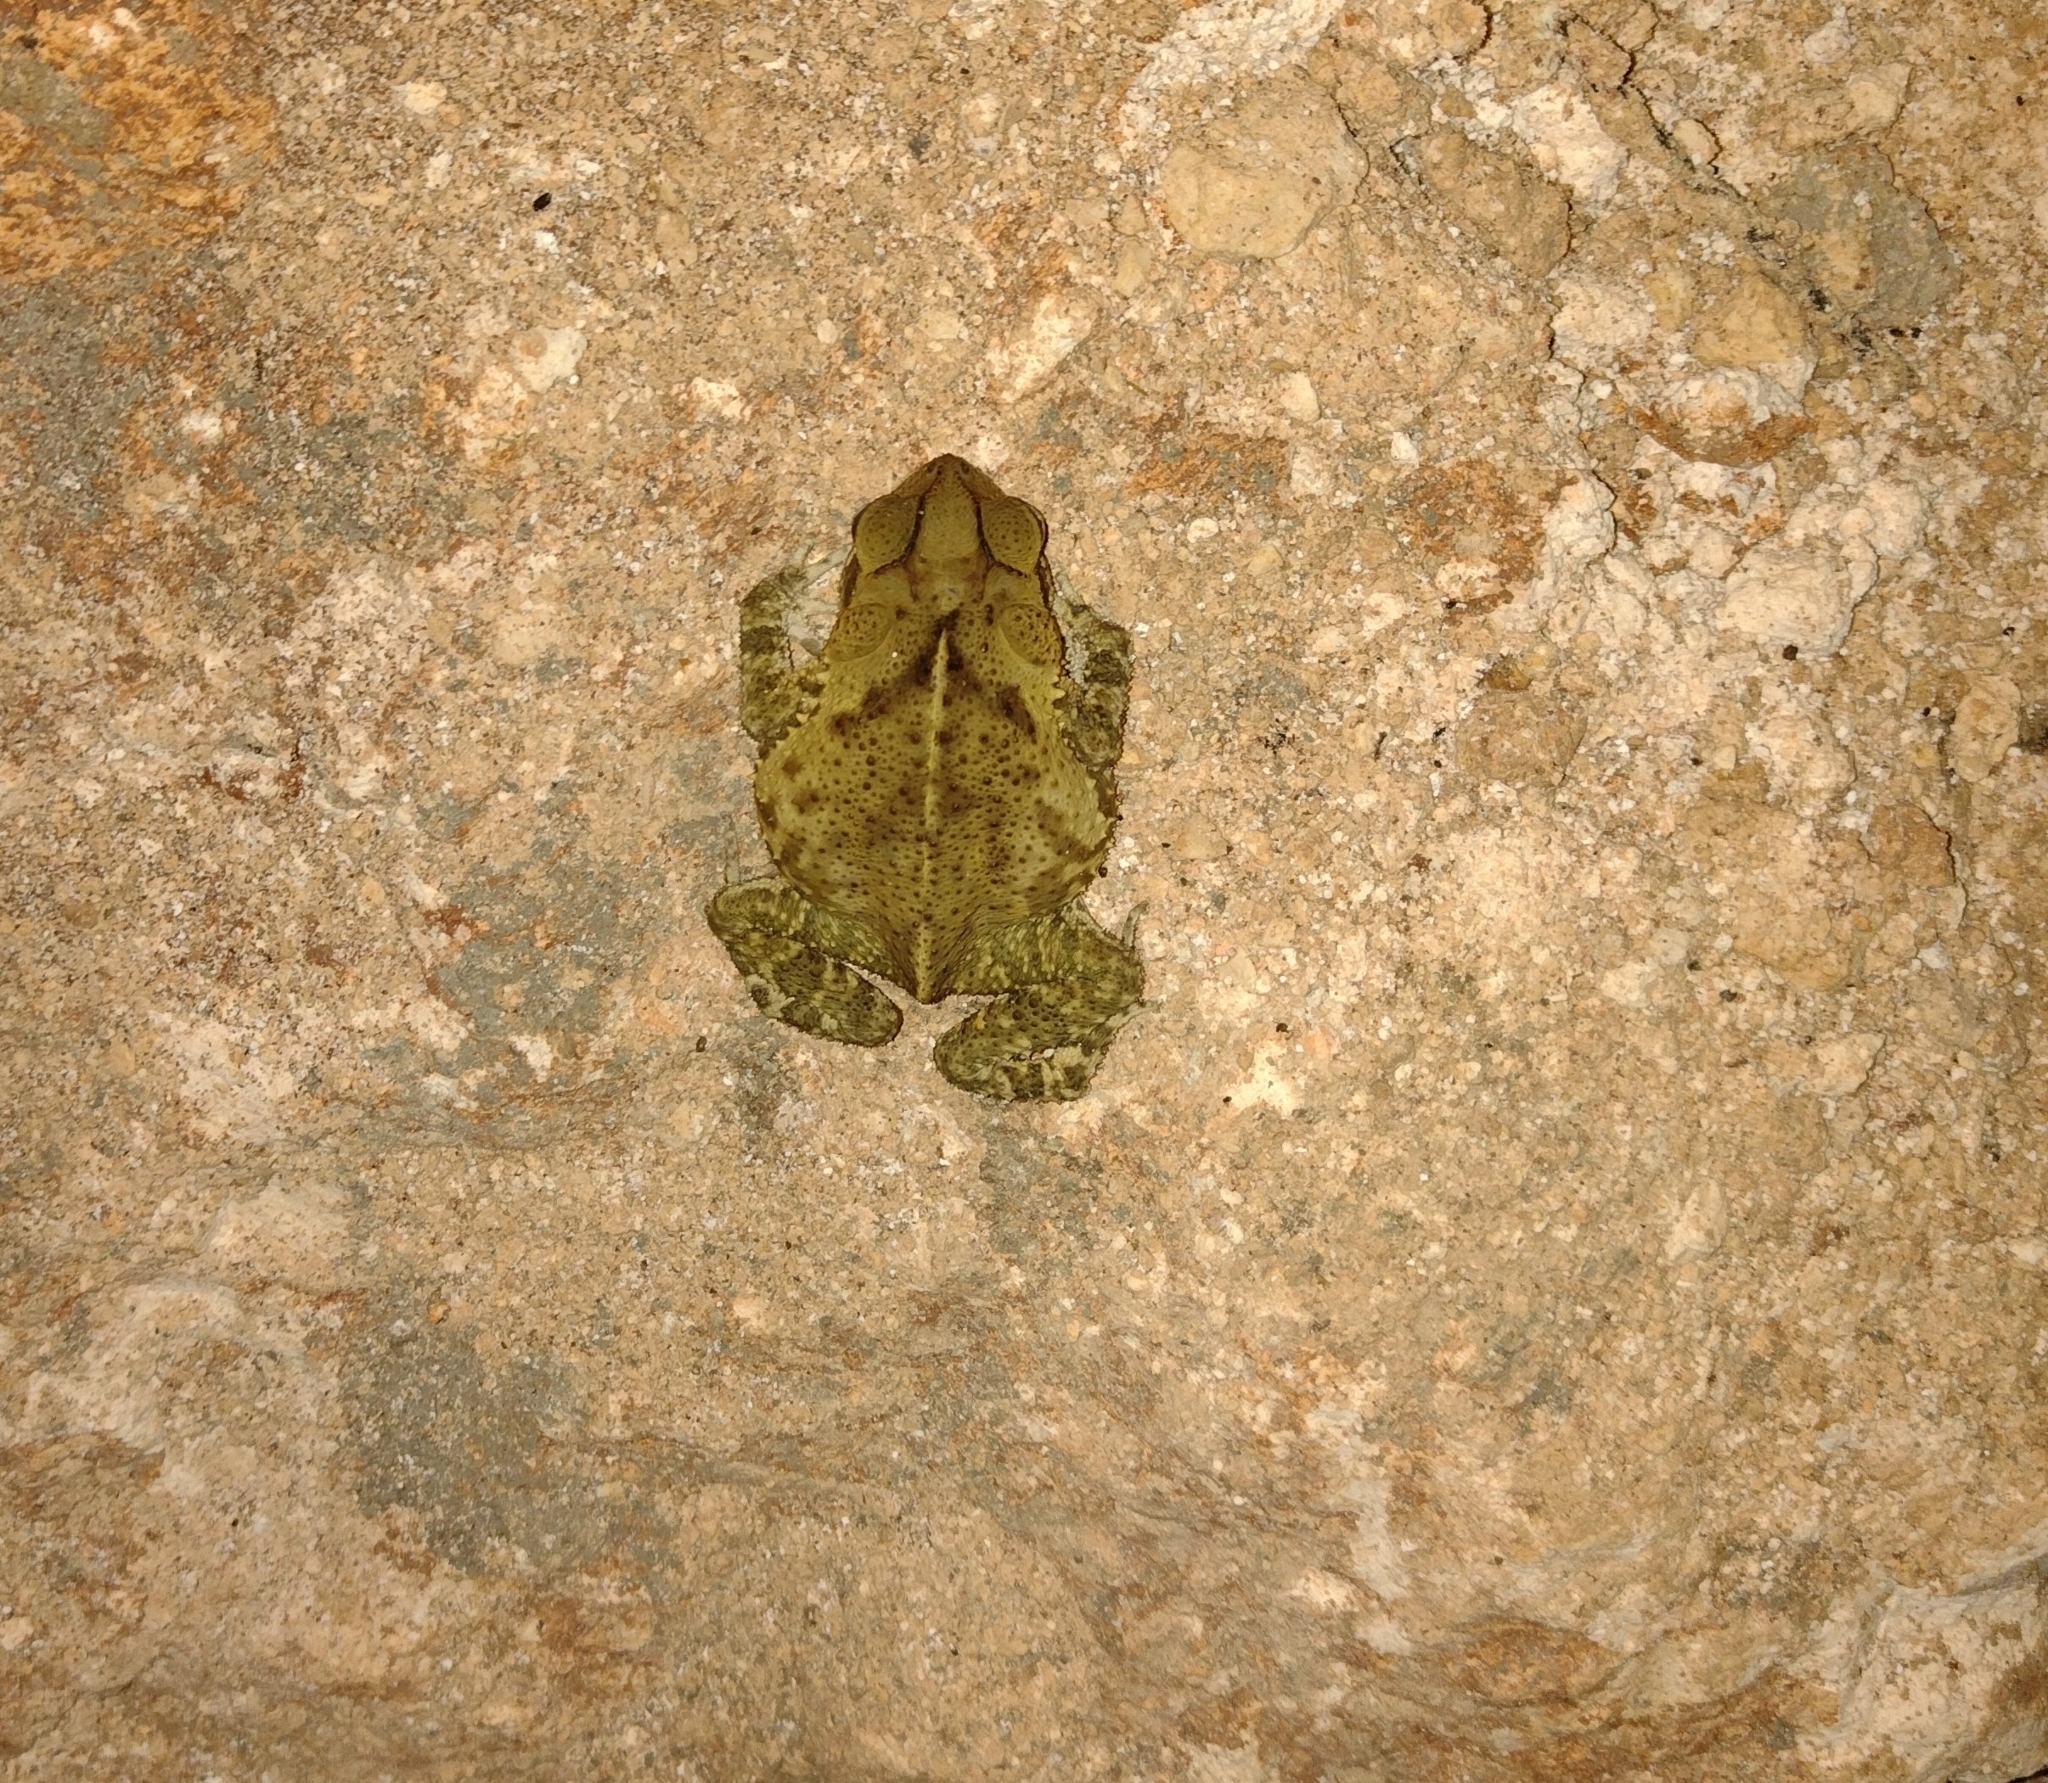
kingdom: Animalia
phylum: Chordata
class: Amphibia
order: Anura
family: Bufonidae
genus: Incilius
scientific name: Incilius valliceps
